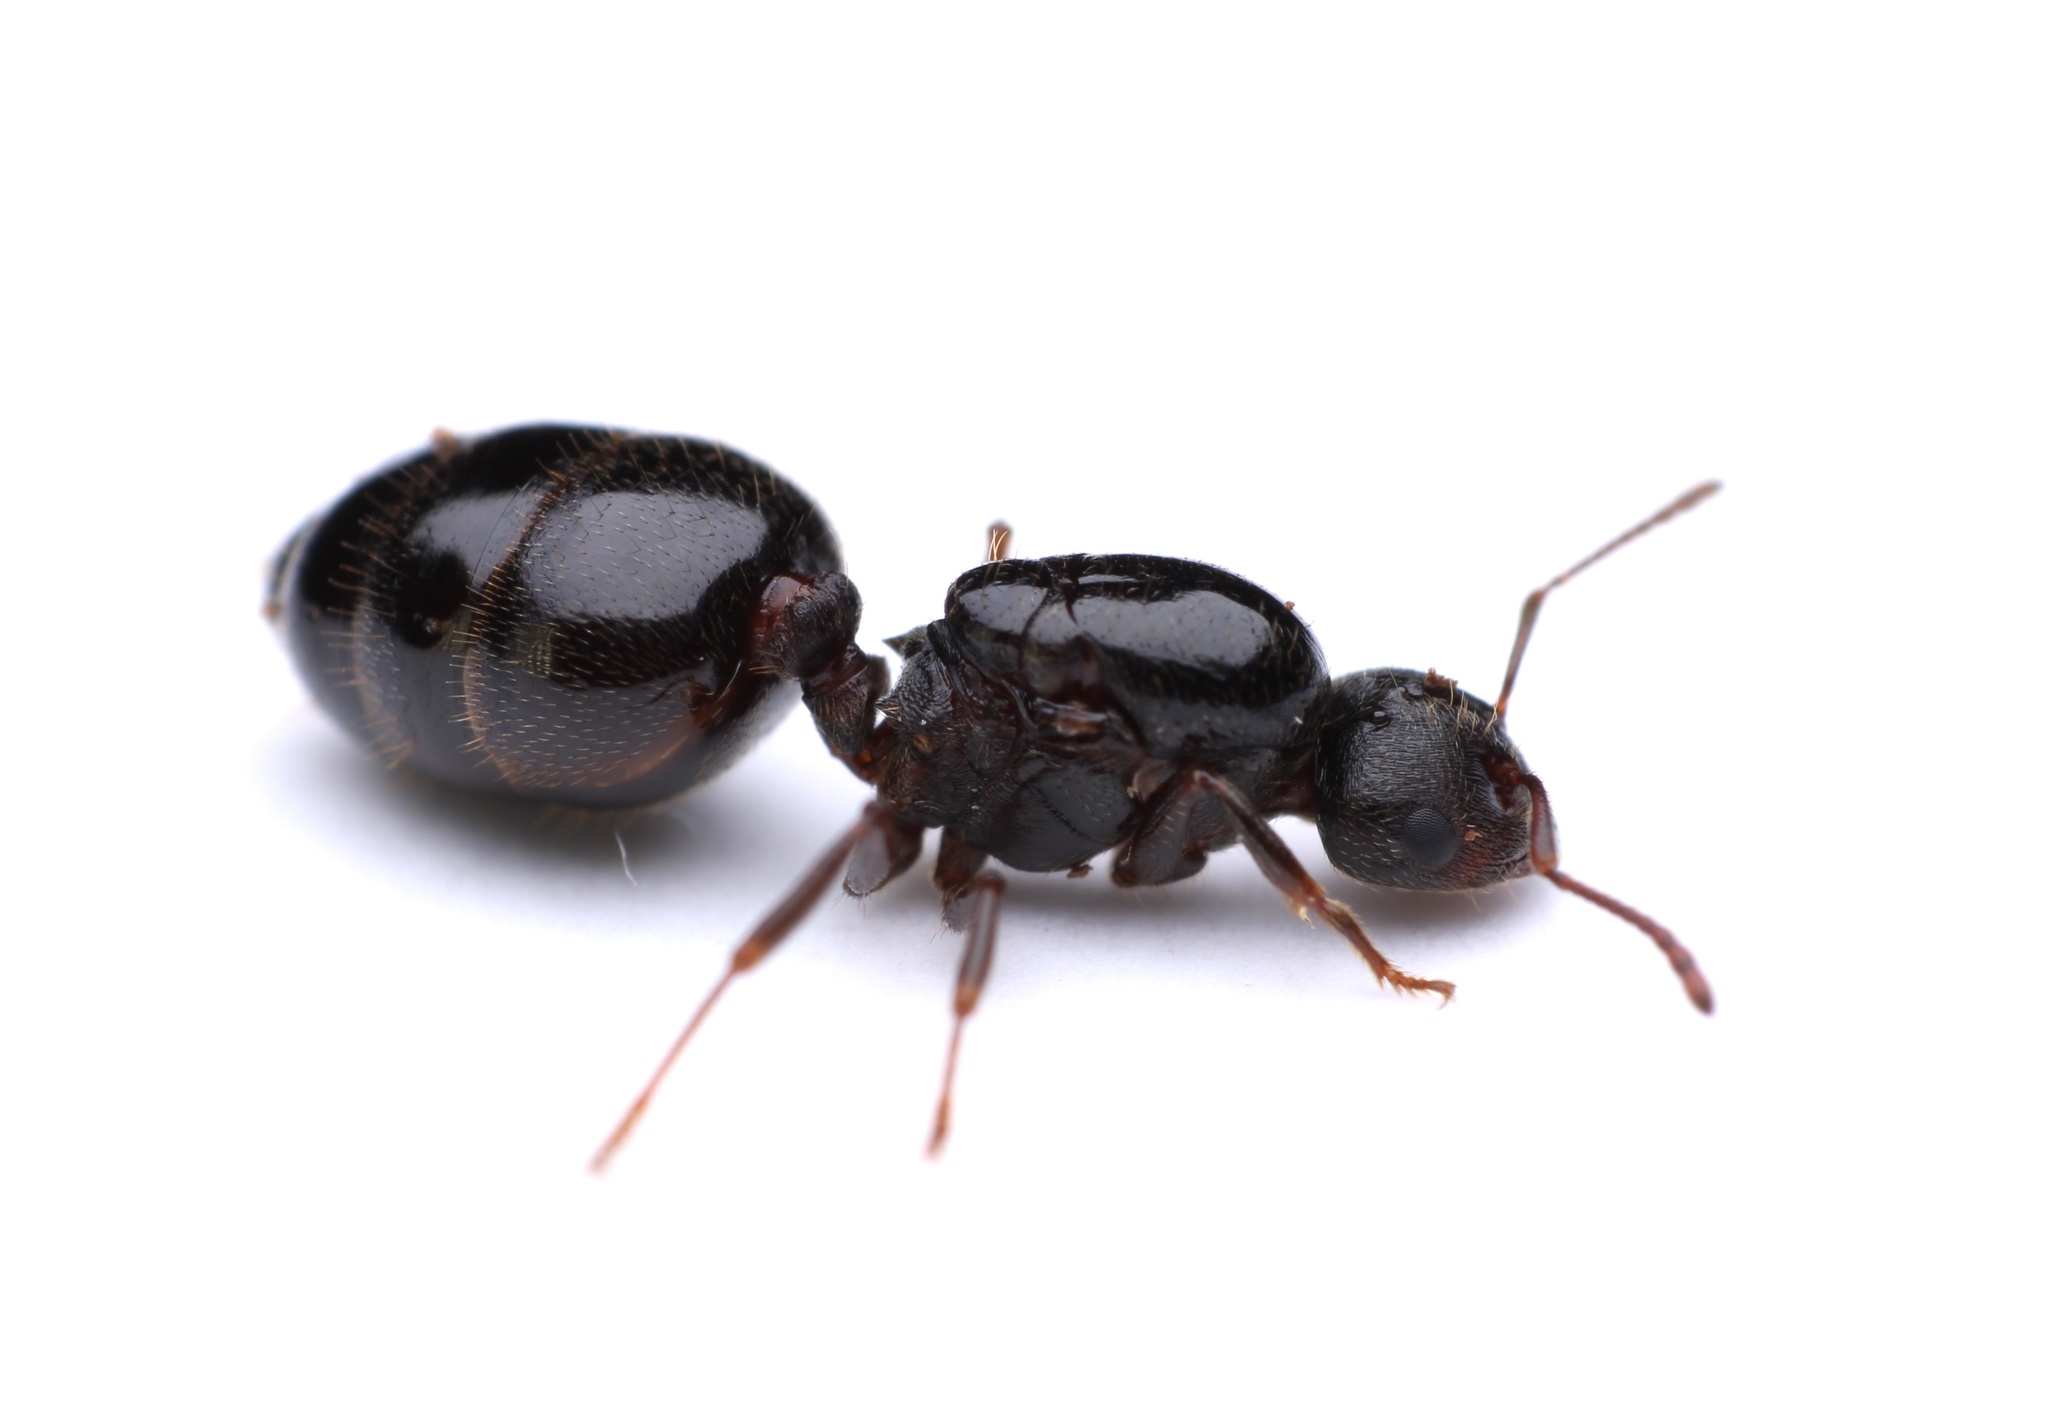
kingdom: Animalia
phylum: Arthropoda
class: Insecta
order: Hymenoptera
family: Formicidae
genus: Crematogaster
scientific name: Crematogaster lineolata
